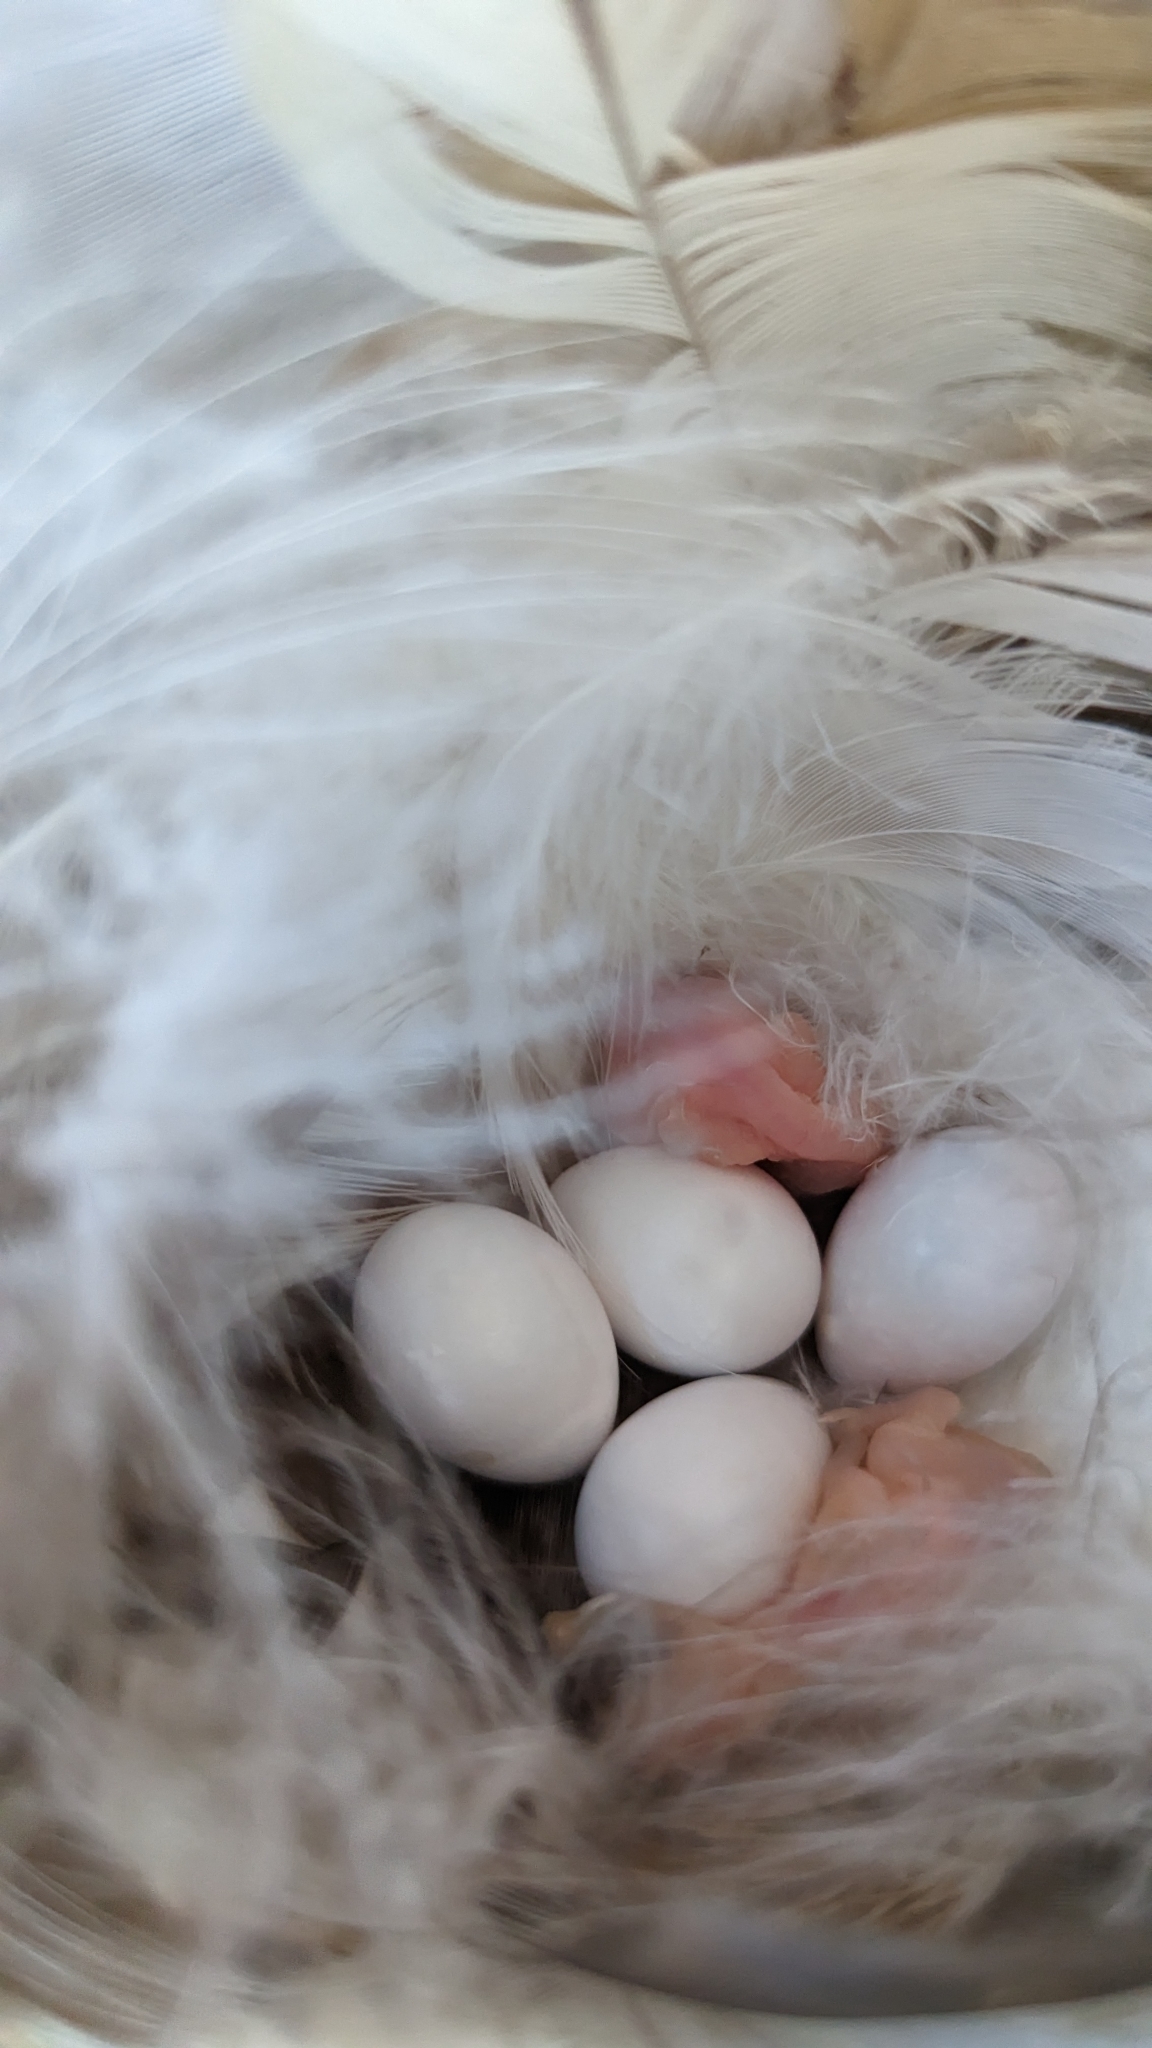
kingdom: Animalia
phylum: Chordata
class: Aves
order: Passeriformes
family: Hirundinidae
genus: Tachycineta
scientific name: Tachycineta bicolor
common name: Tree swallow
